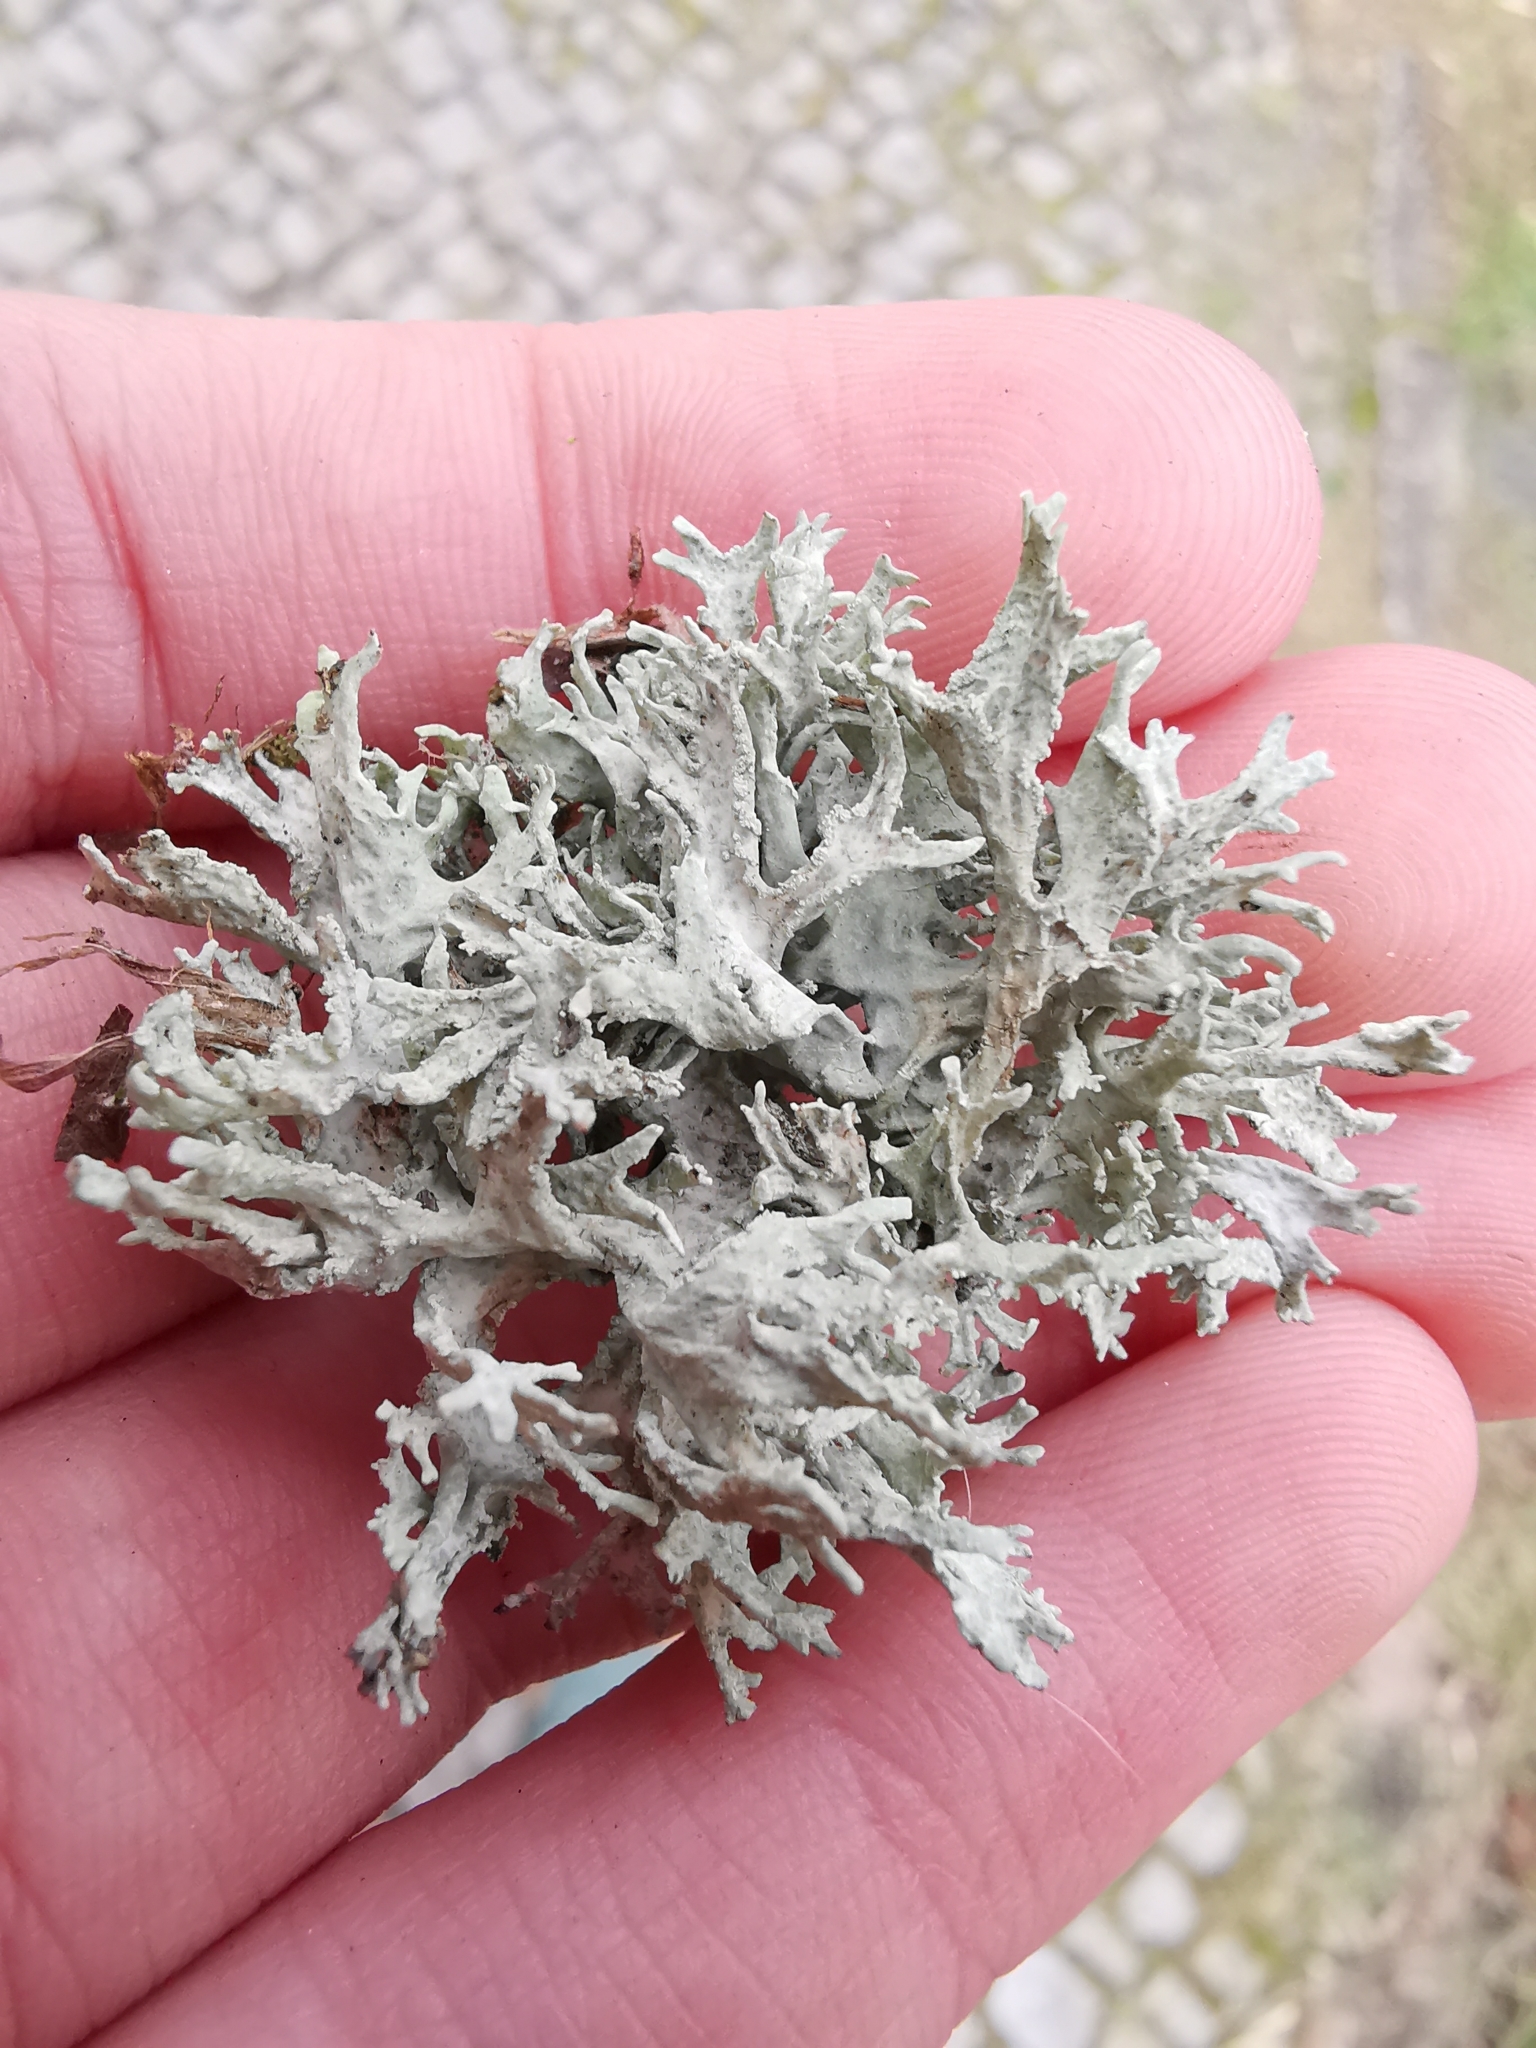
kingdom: Fungi
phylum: Ascomycota
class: Lecanoromycetes
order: Lecanorales
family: Parmeliaceae
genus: Evernia
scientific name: Evernia prunastri
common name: Oak moss
